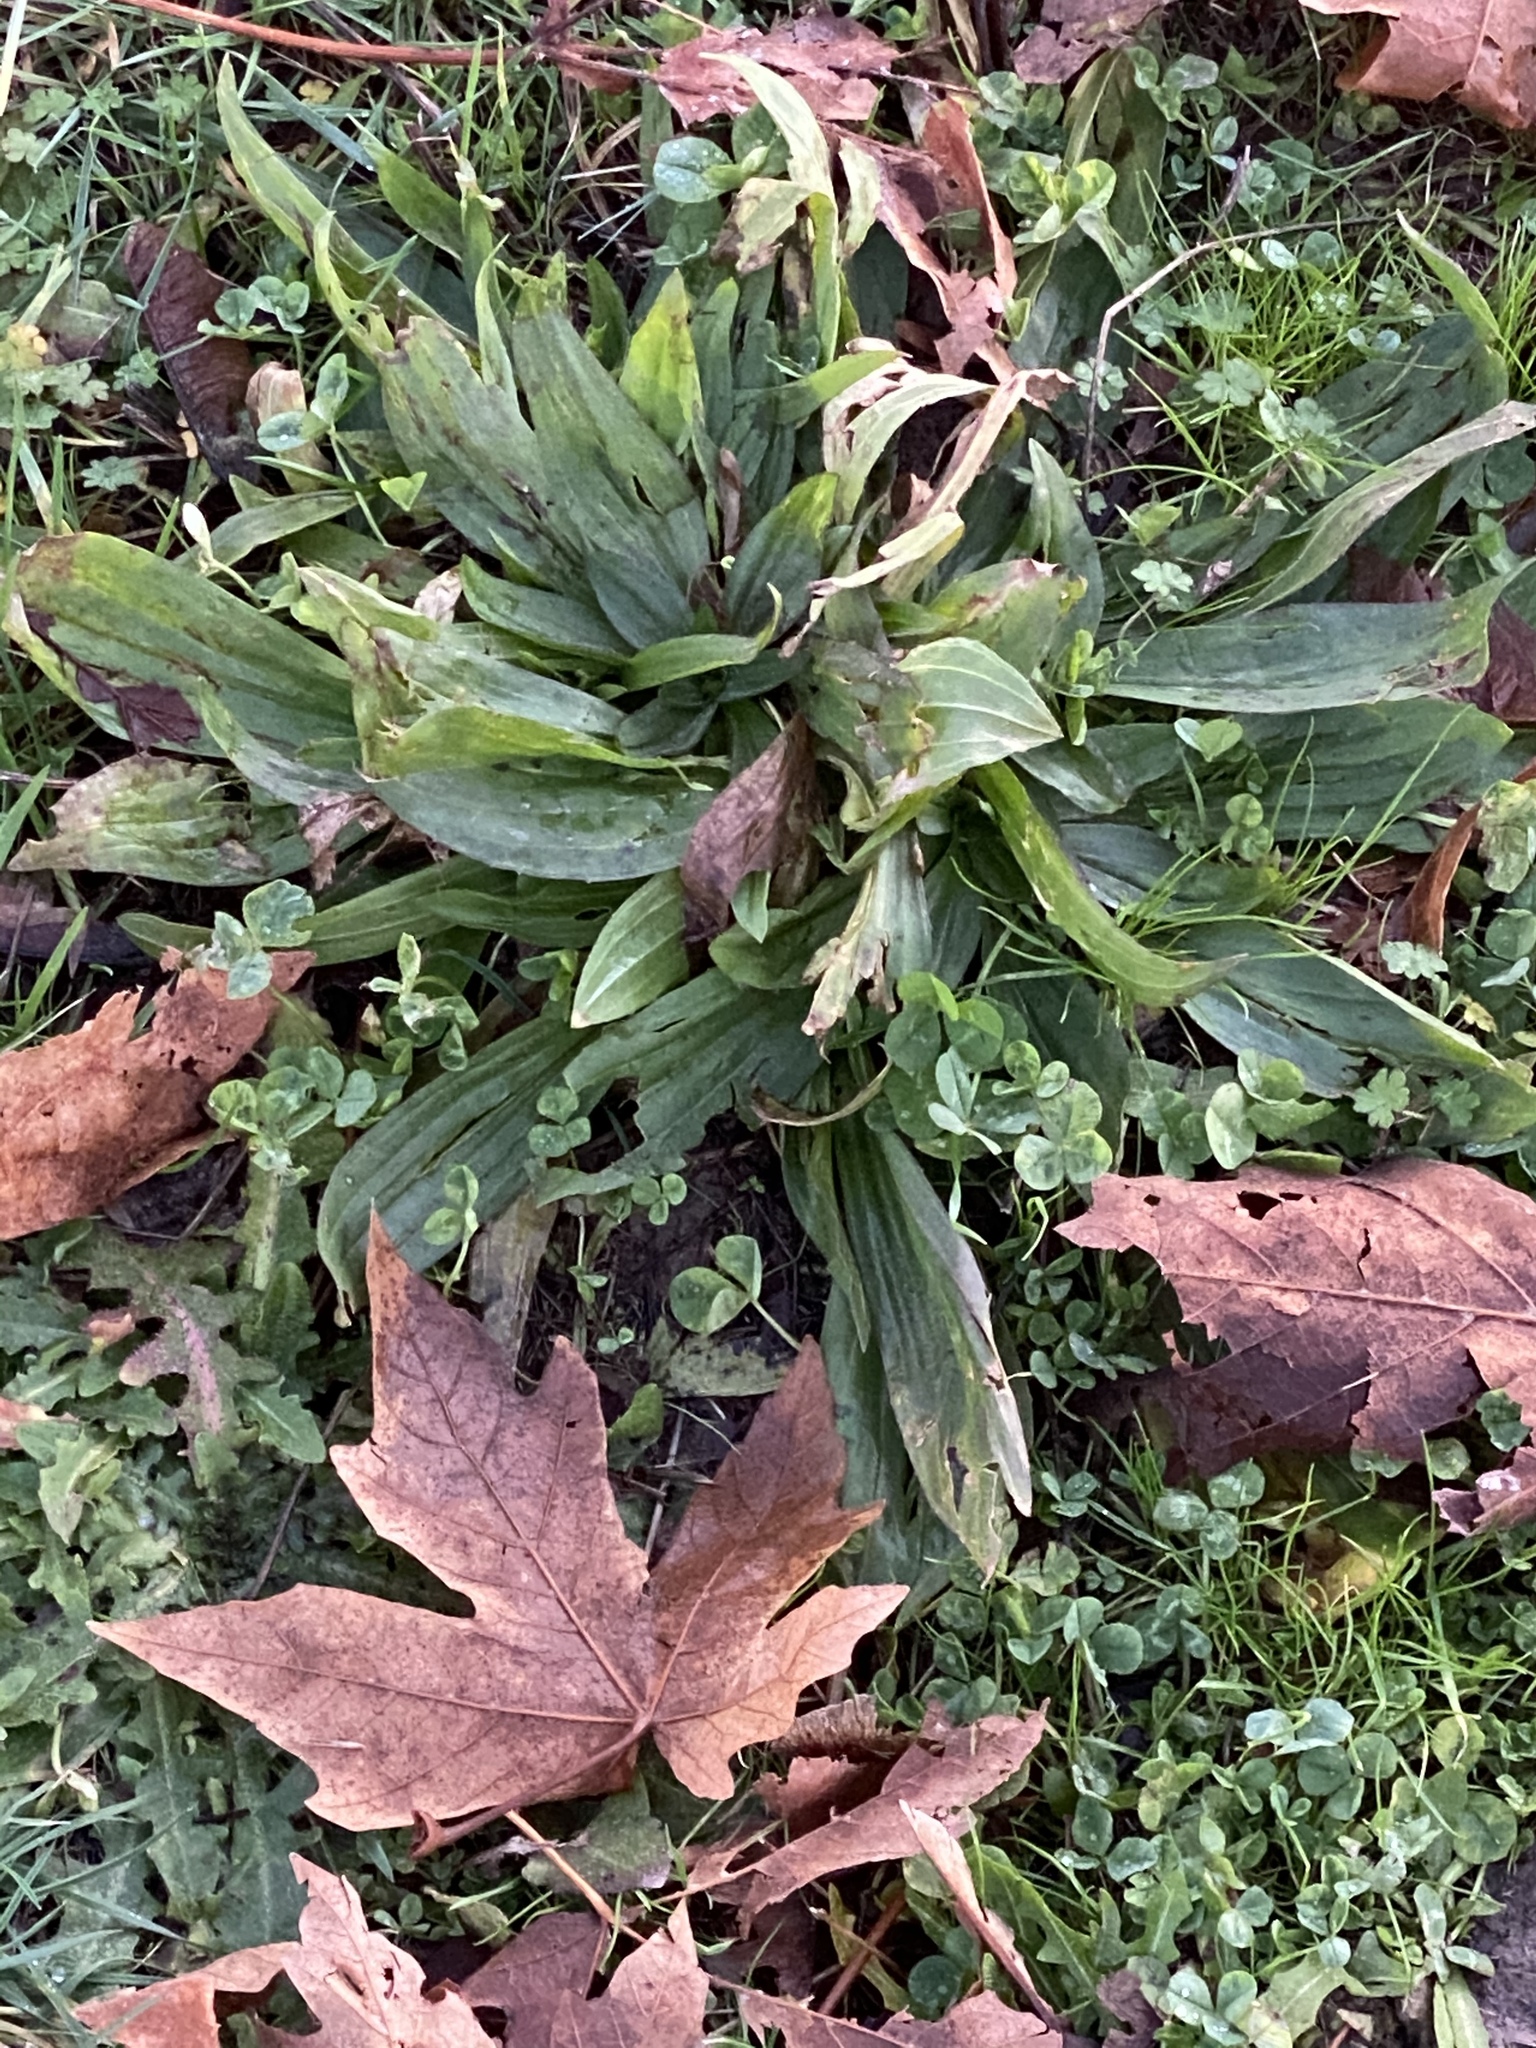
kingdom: Plantae
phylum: Tracheophyta
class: Magnoliopsida
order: Lamiales
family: Plantaginaceae
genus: Plantago
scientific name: Plantago lanceolata
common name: Ribwort plantain
